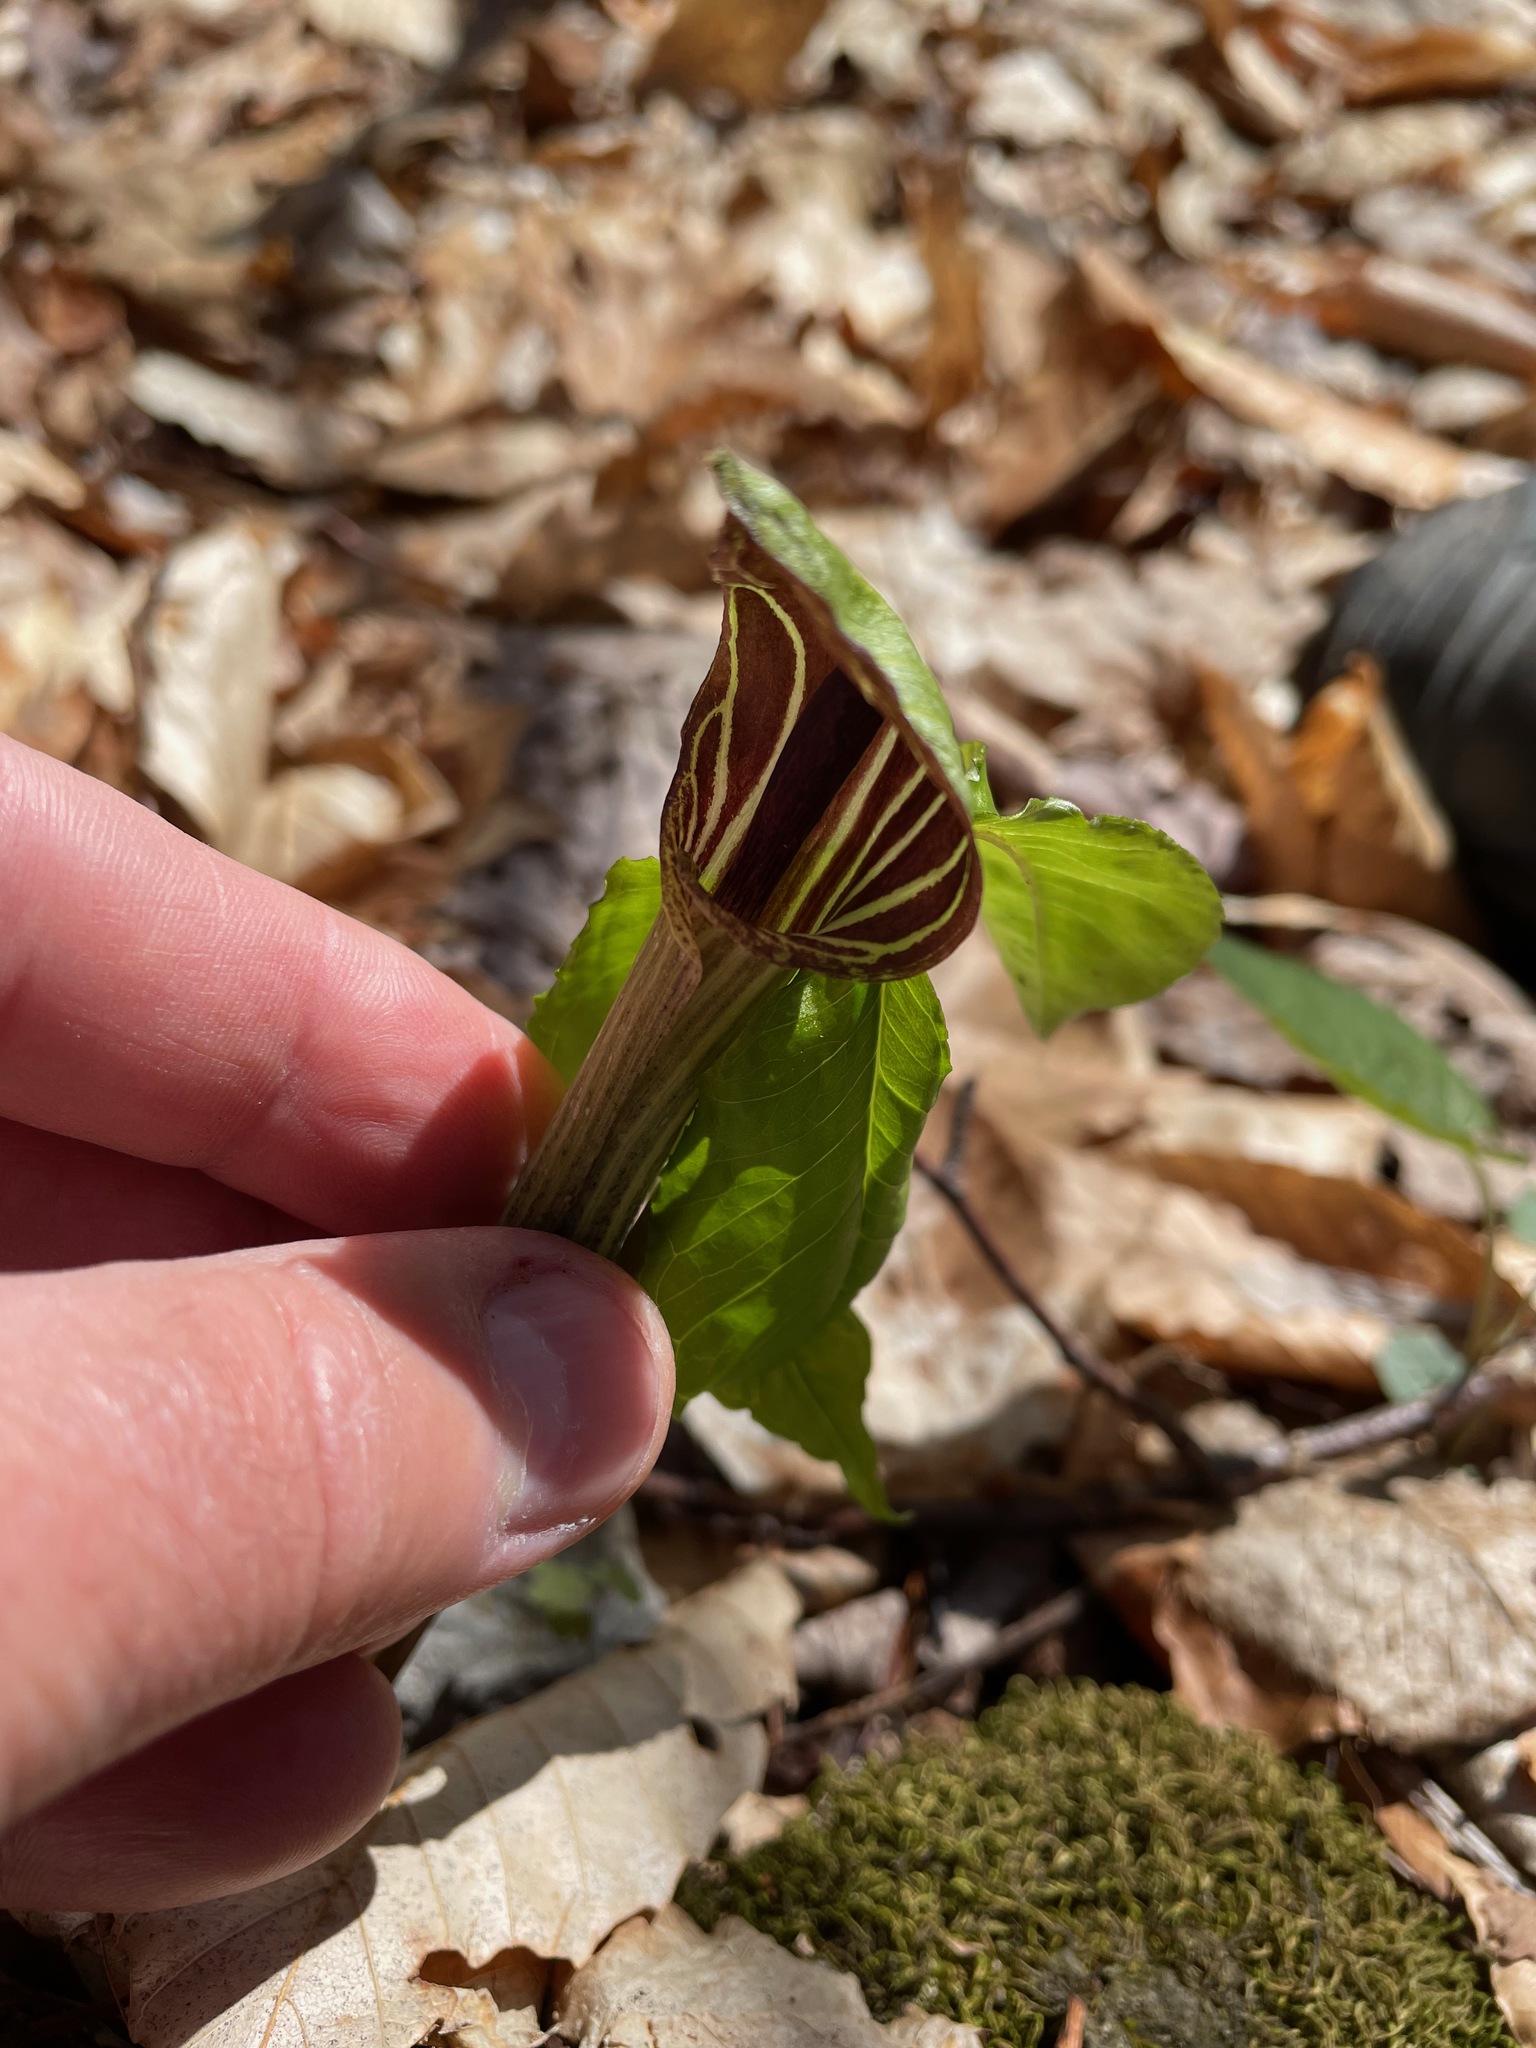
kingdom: Plantae
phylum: Tracheophyta
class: Liliopsida
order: Alismatales
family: Araceae
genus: Arisaema
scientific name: Arisaema triphyllum
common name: Jack-in-the-pulpit
